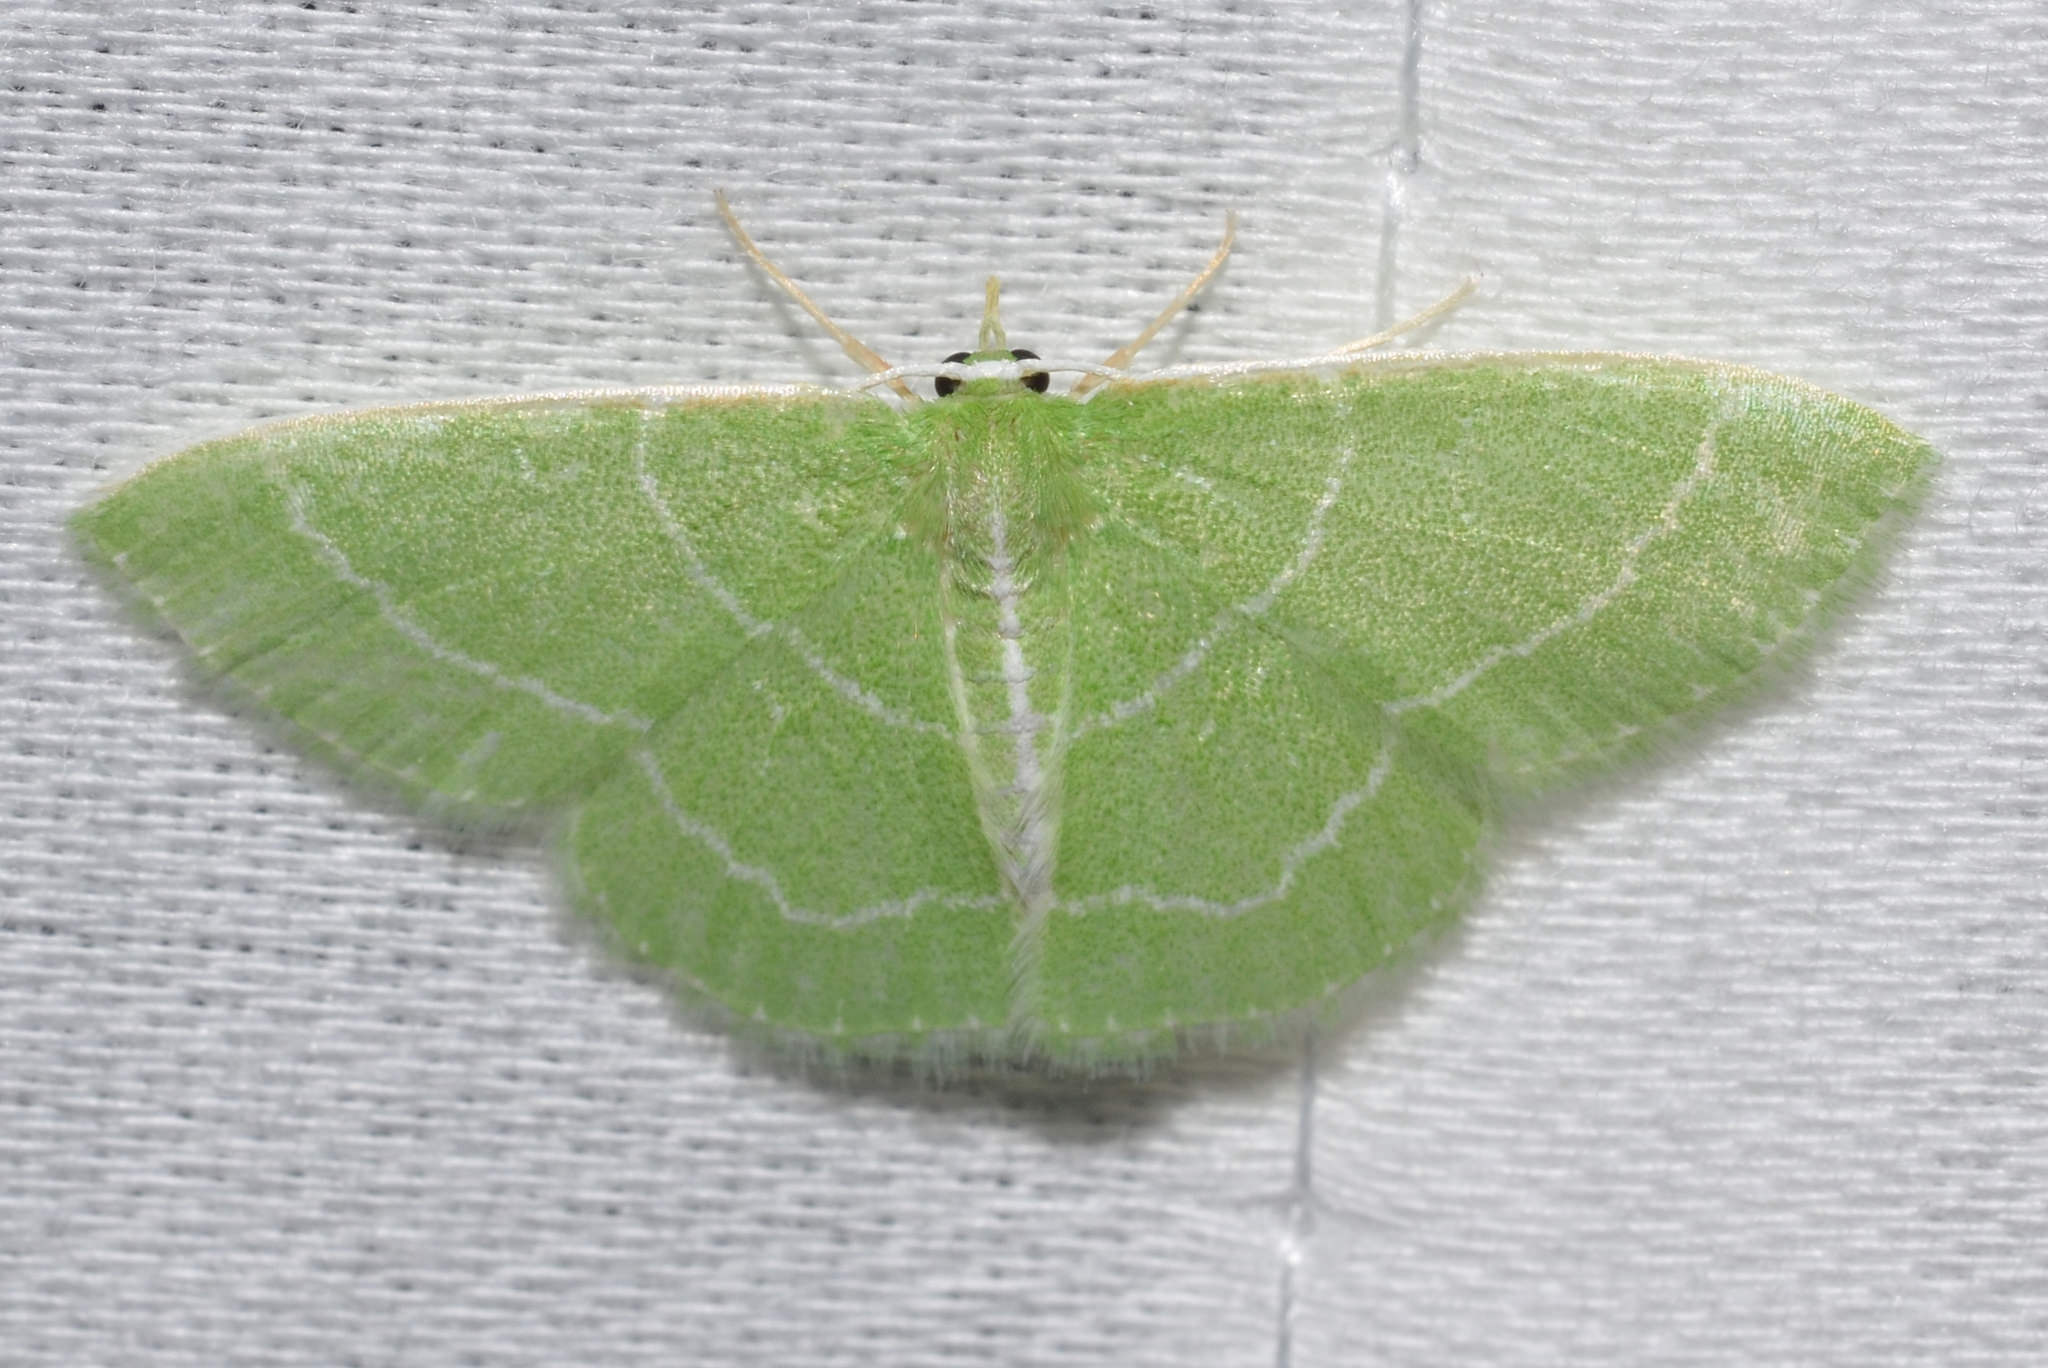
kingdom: Animalia
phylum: Arthropoda
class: Insecta
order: Lepidoptera
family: Geometridae
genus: Synchlora
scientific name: Synchlora aerata
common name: Wavy-lined emerald
